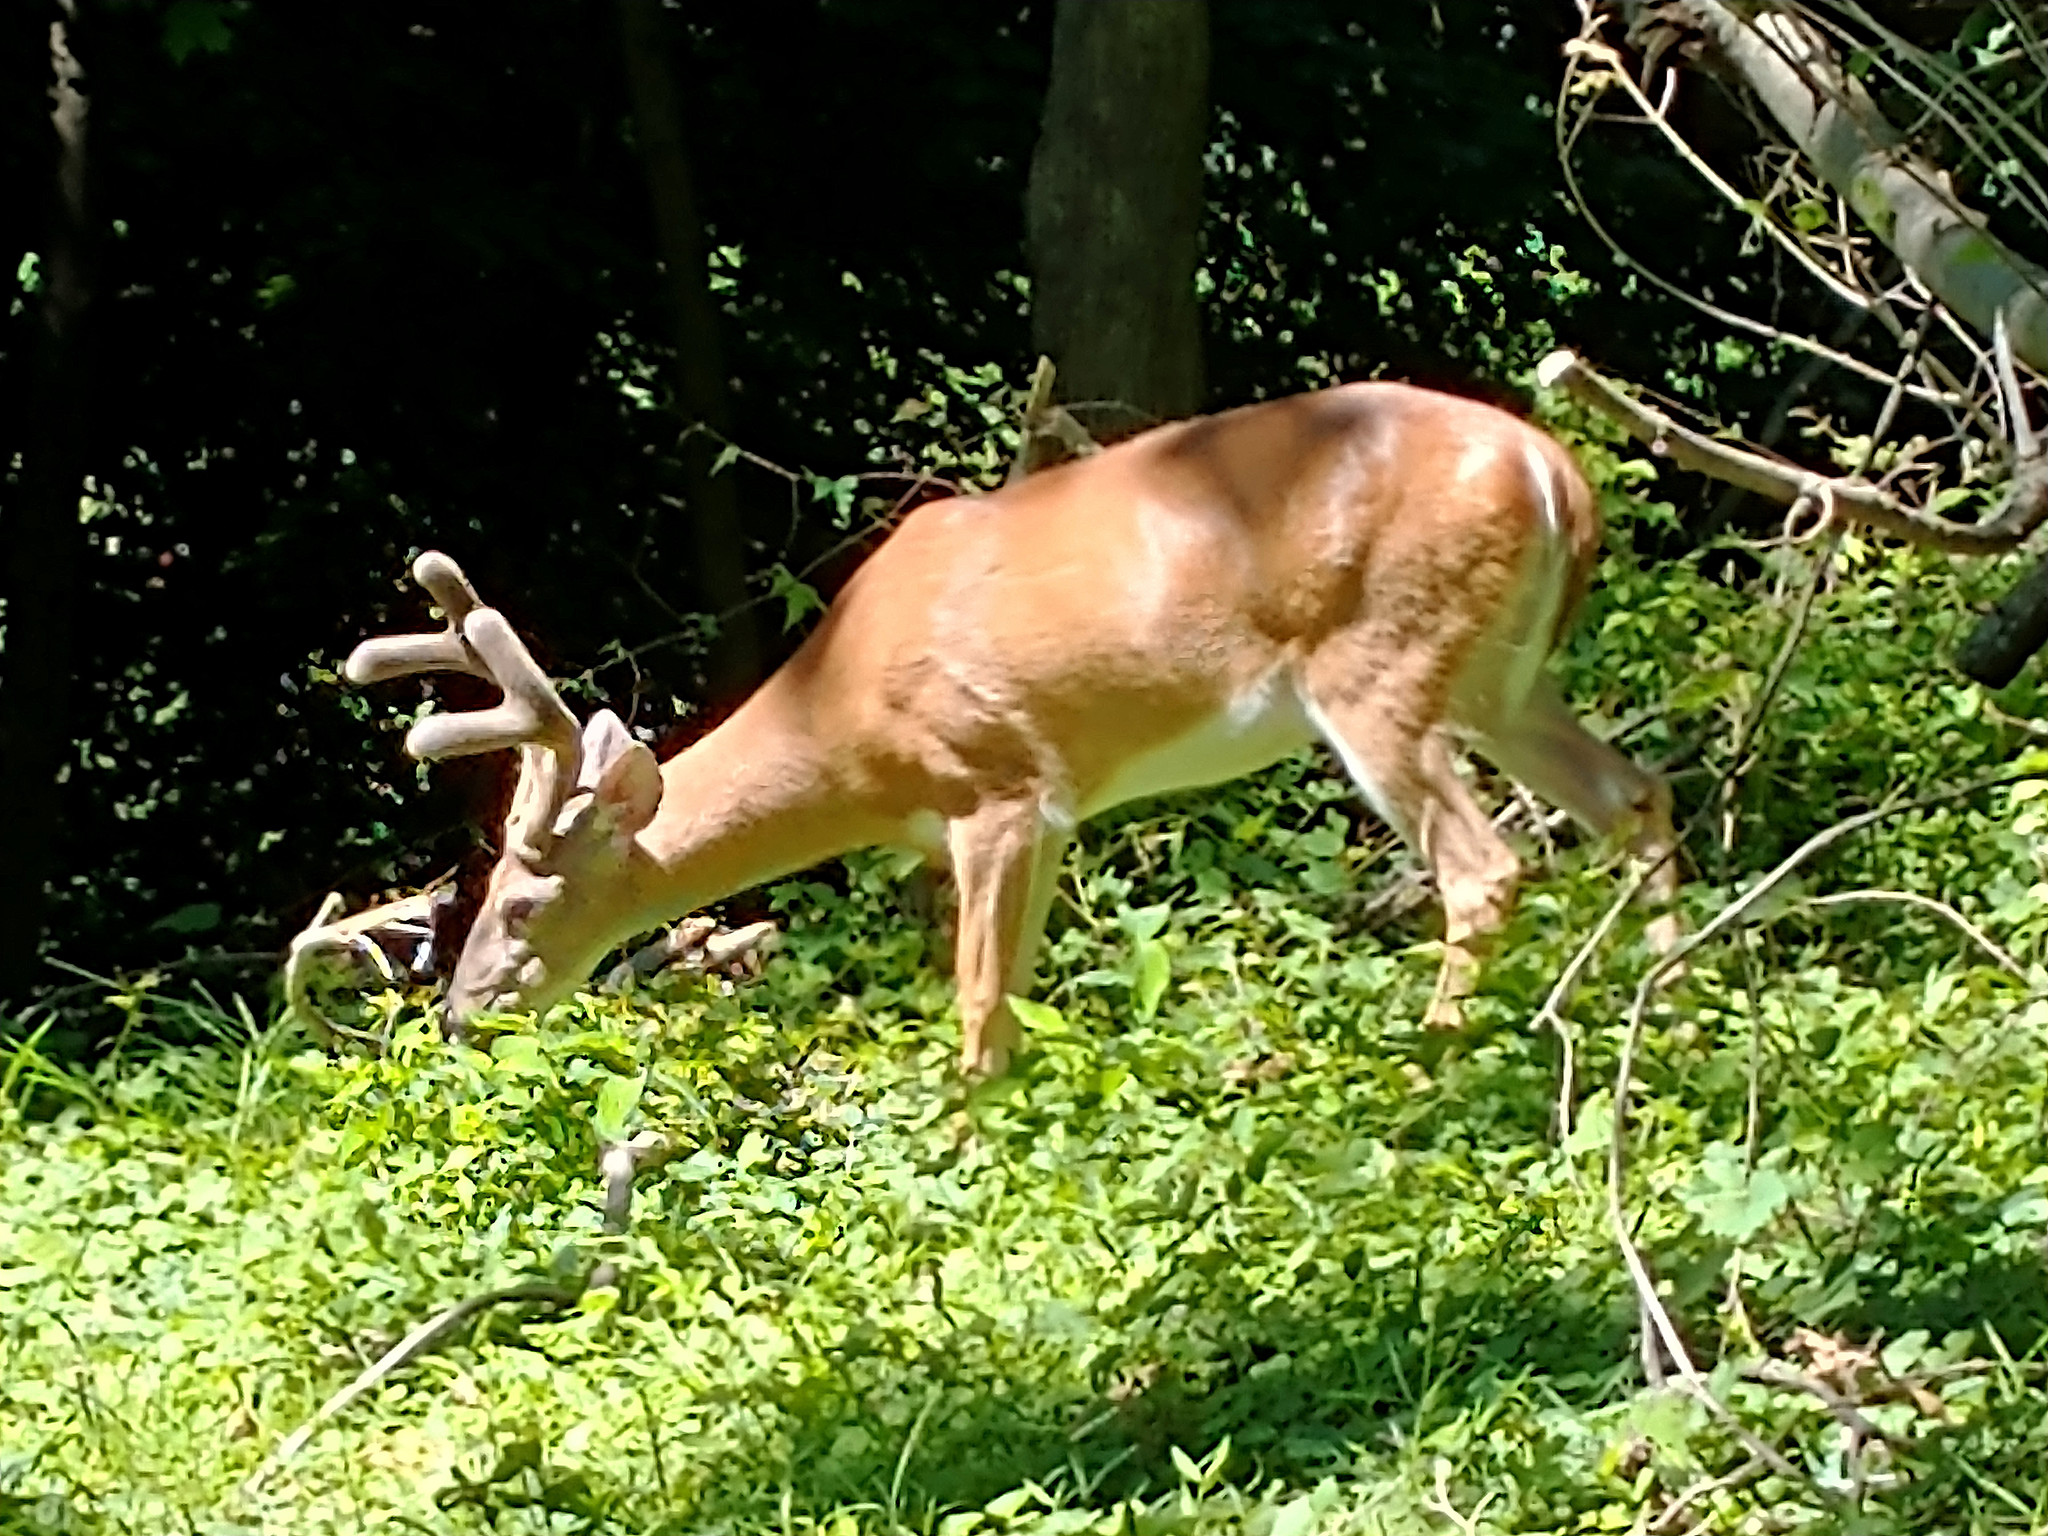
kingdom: Animalia
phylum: Chordata
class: Mammalia
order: Artiodactyla
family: Cervidae
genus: Odocoileus
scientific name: Odocoileus virginianus
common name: White-tailed deer
